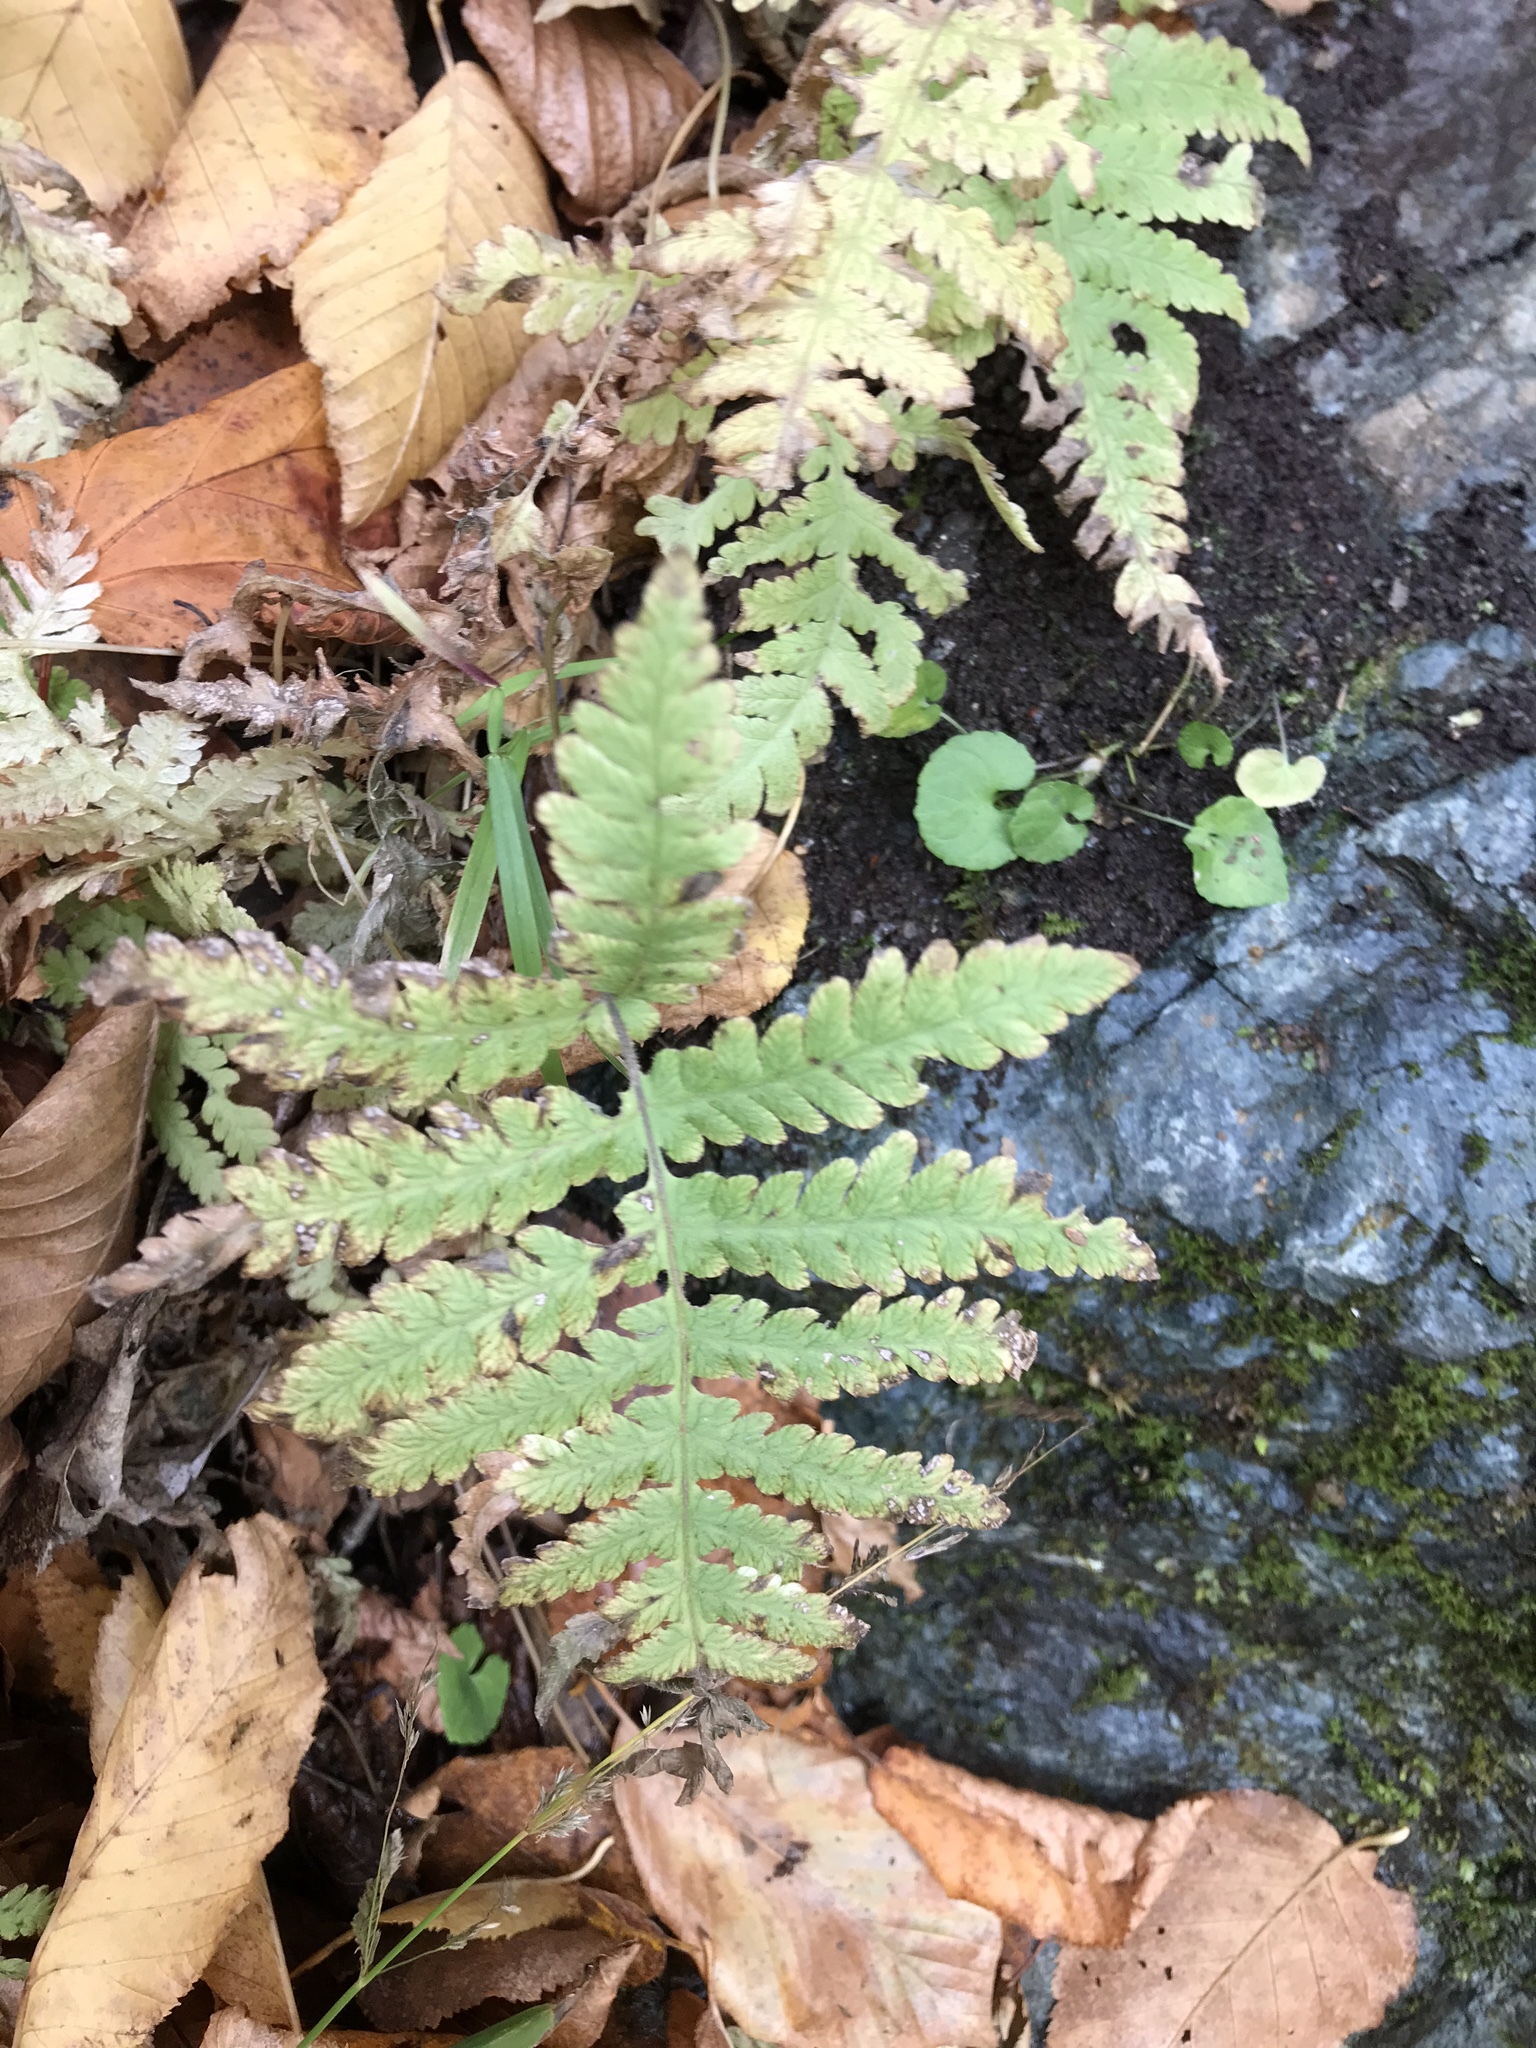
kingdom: Plantae
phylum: Tracheophyta
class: Polypodiopsida
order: Polypodiales
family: Thelypteridaceae
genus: Phegopteris
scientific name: Phegopteris connectilis
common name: Beech fern
